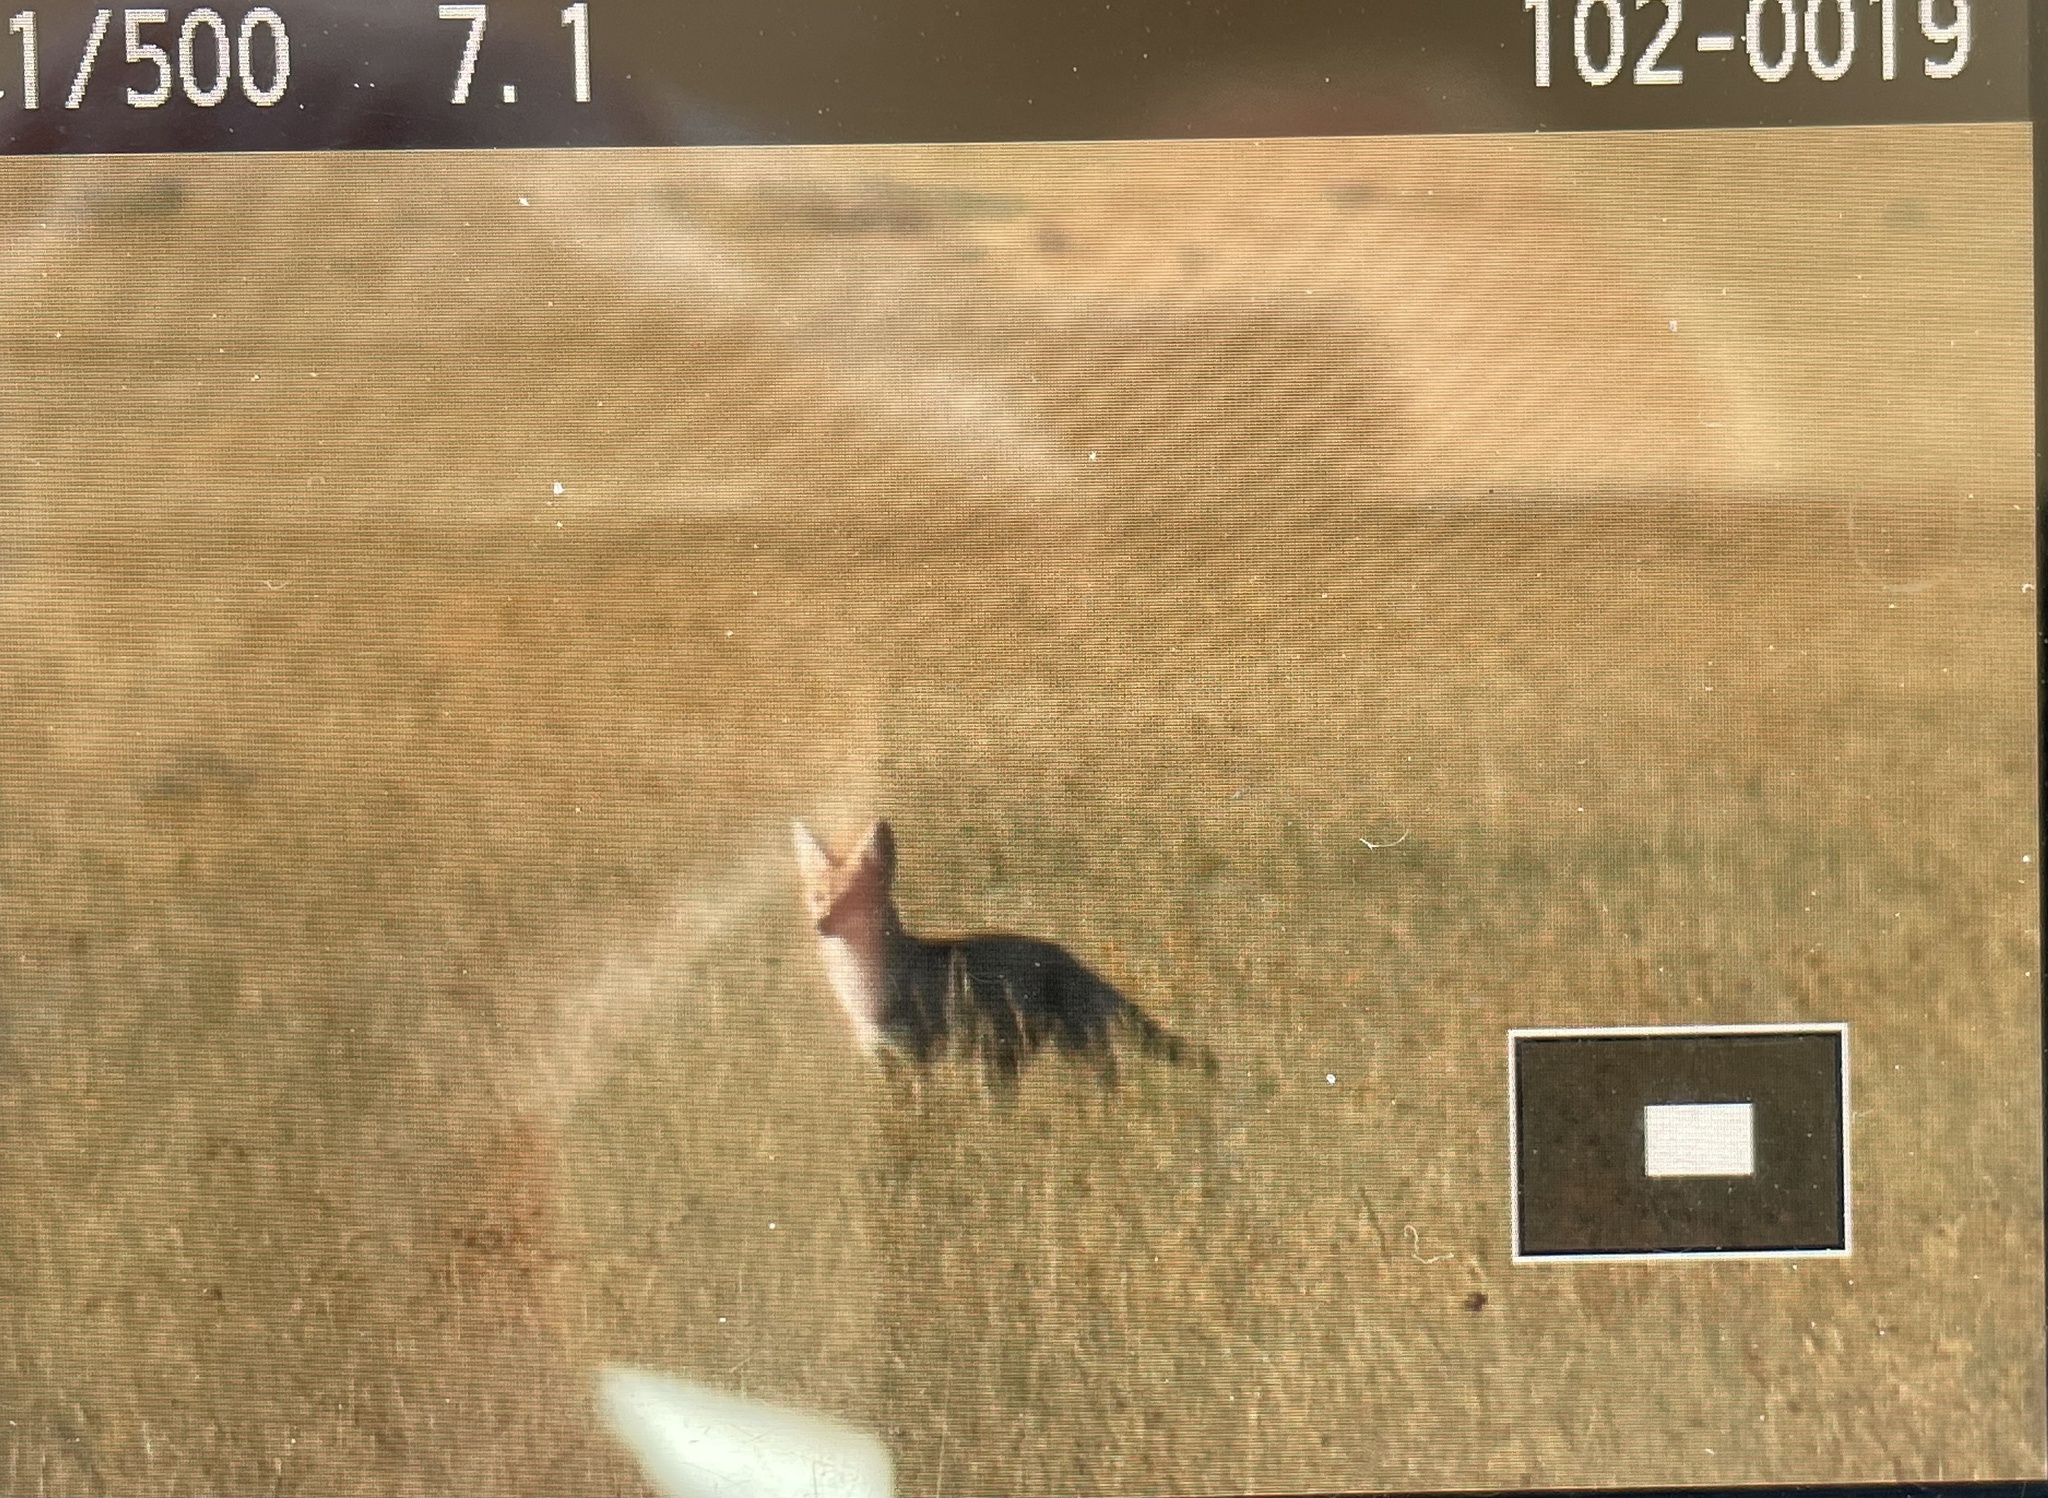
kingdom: Animalia
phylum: Chordata
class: Mammalia
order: Carnivora
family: Canidae
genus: Canis
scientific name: Canis latrans
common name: Coyote
